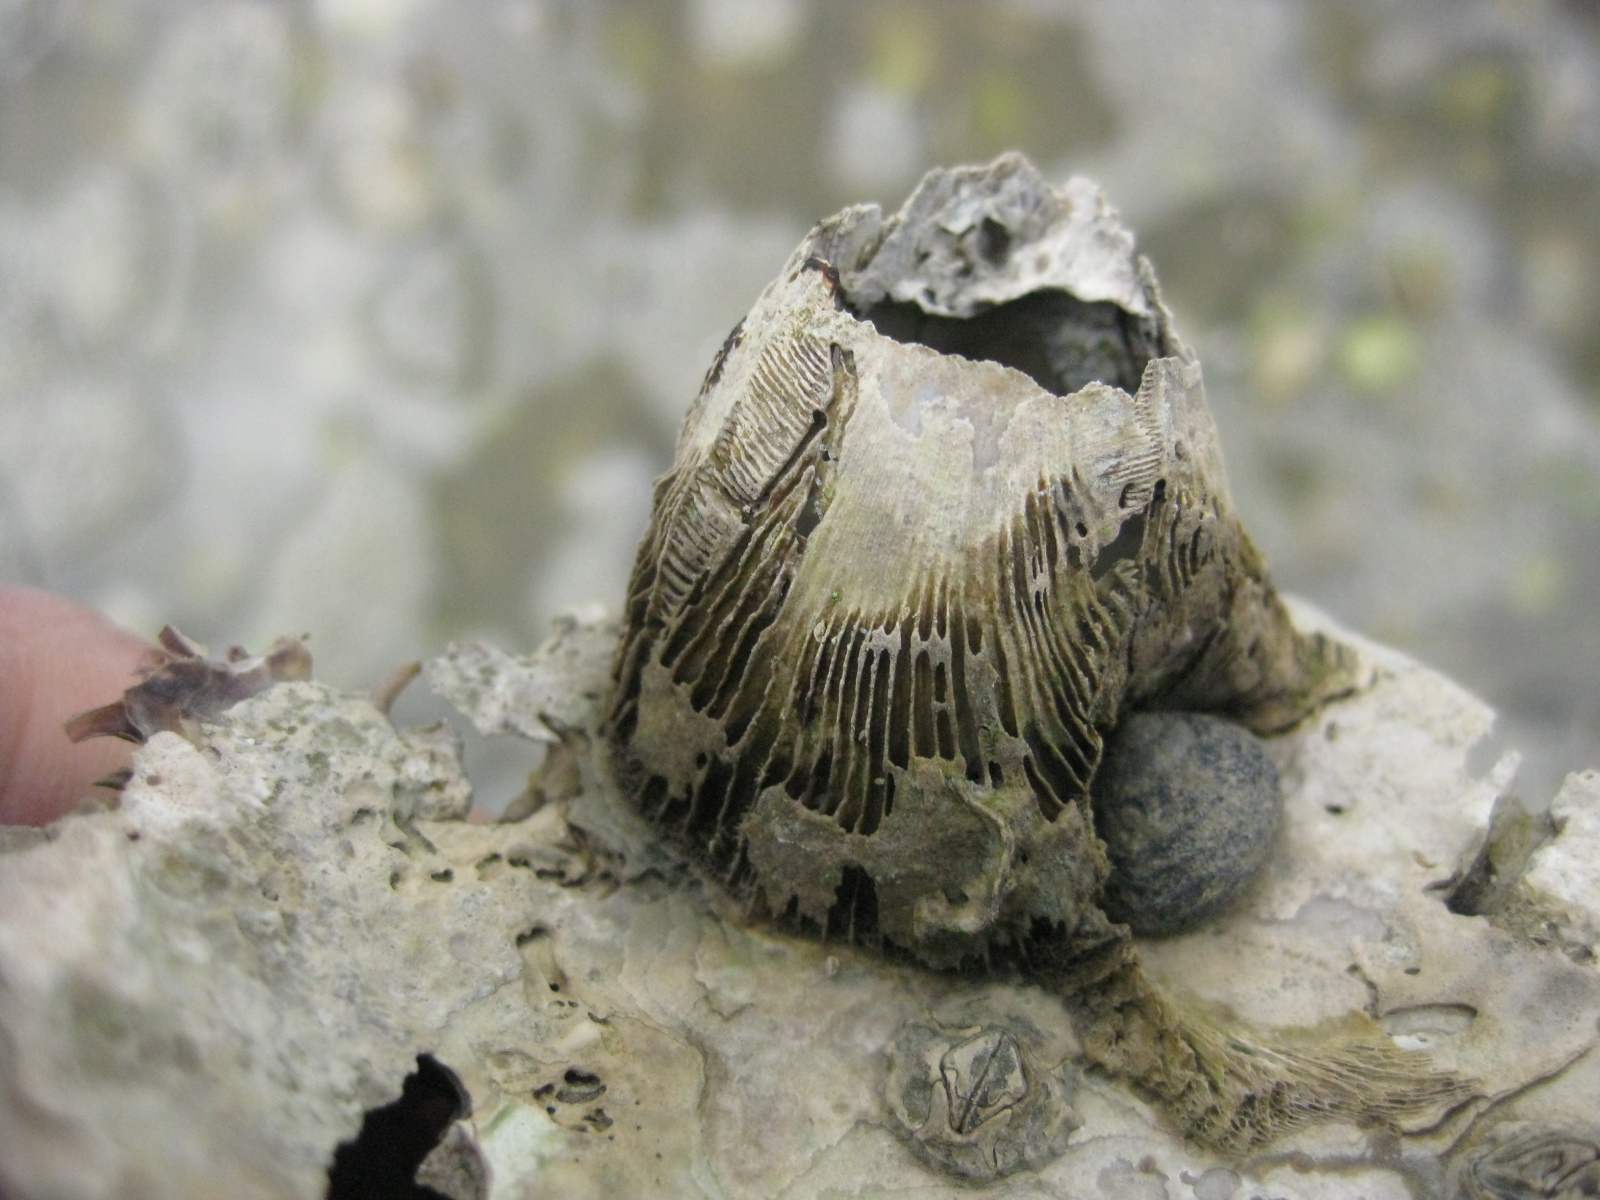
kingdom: Animalia
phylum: Arthropoda
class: Maxillopoda
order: Sessilia
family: Balanidae
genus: Notomegabalanus
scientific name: Notomegabalanus decorus
